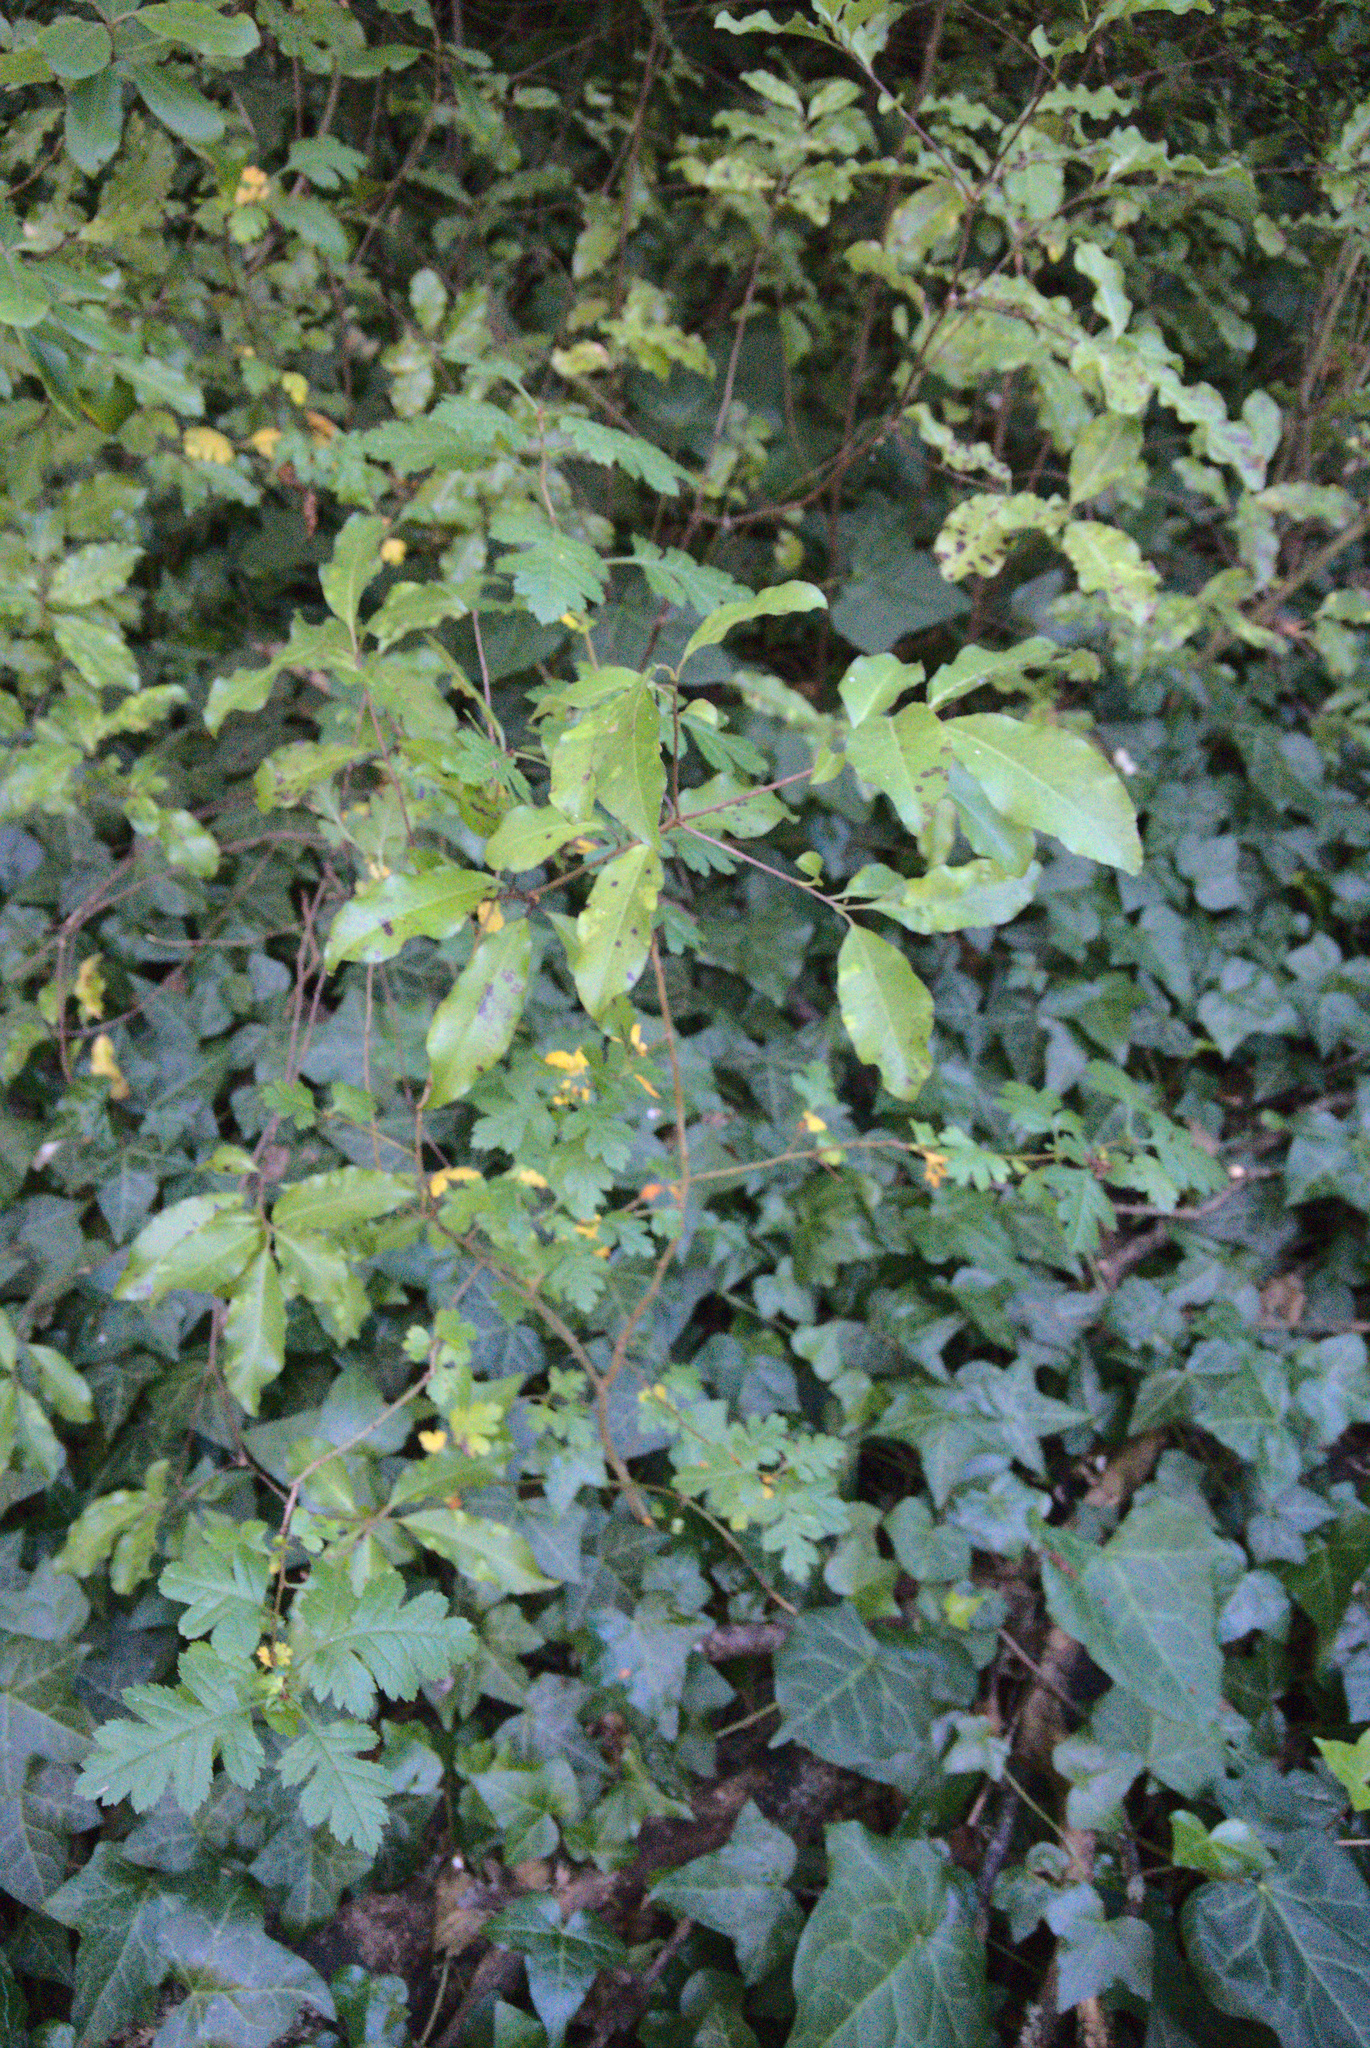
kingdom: Plantae
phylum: Tracheophyta
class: Magnoliopsida
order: Apiales
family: Pittosporaceae
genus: Pittosporum
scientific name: Pittosporum tenuifolium
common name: Kohuhu
